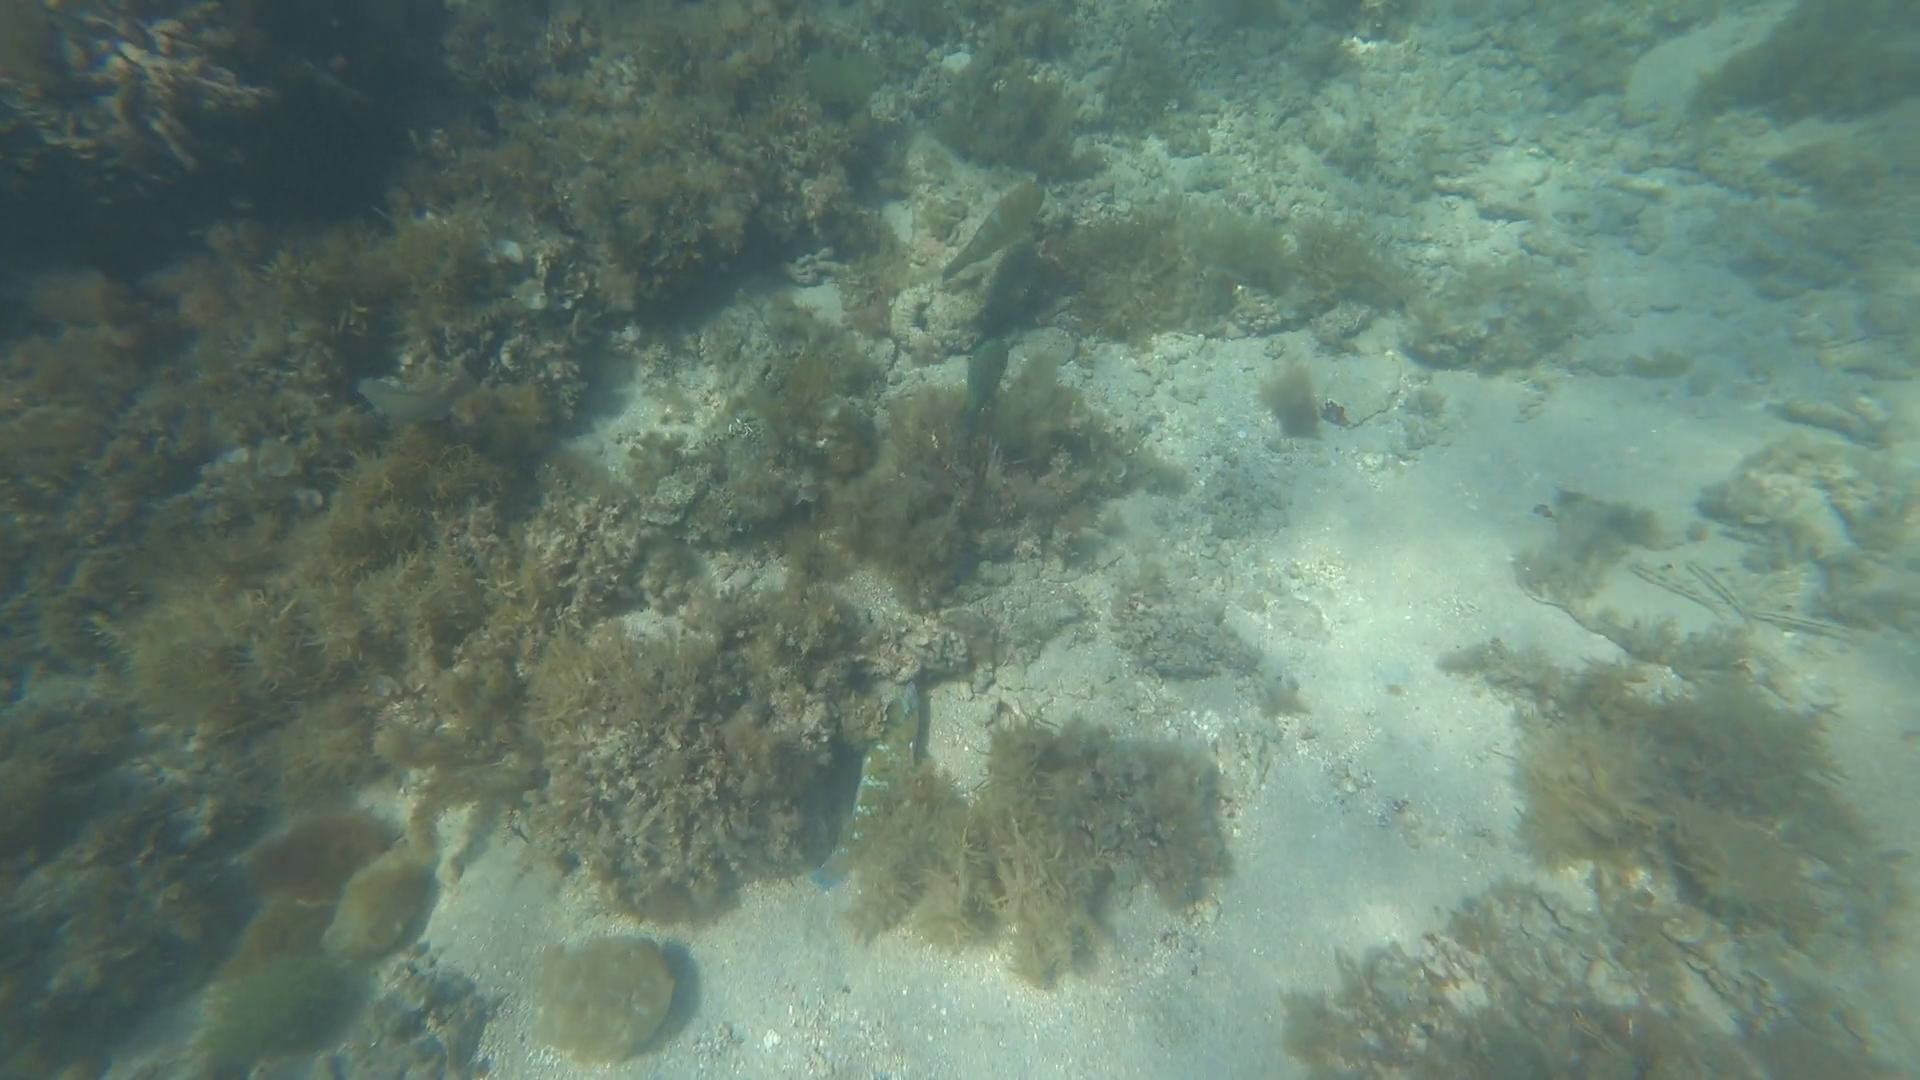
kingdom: Animalia
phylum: Chordata
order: Perciformes
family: Scaridae
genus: Scarus
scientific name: Scarus ghobban
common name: Blue-barred parrotfish
